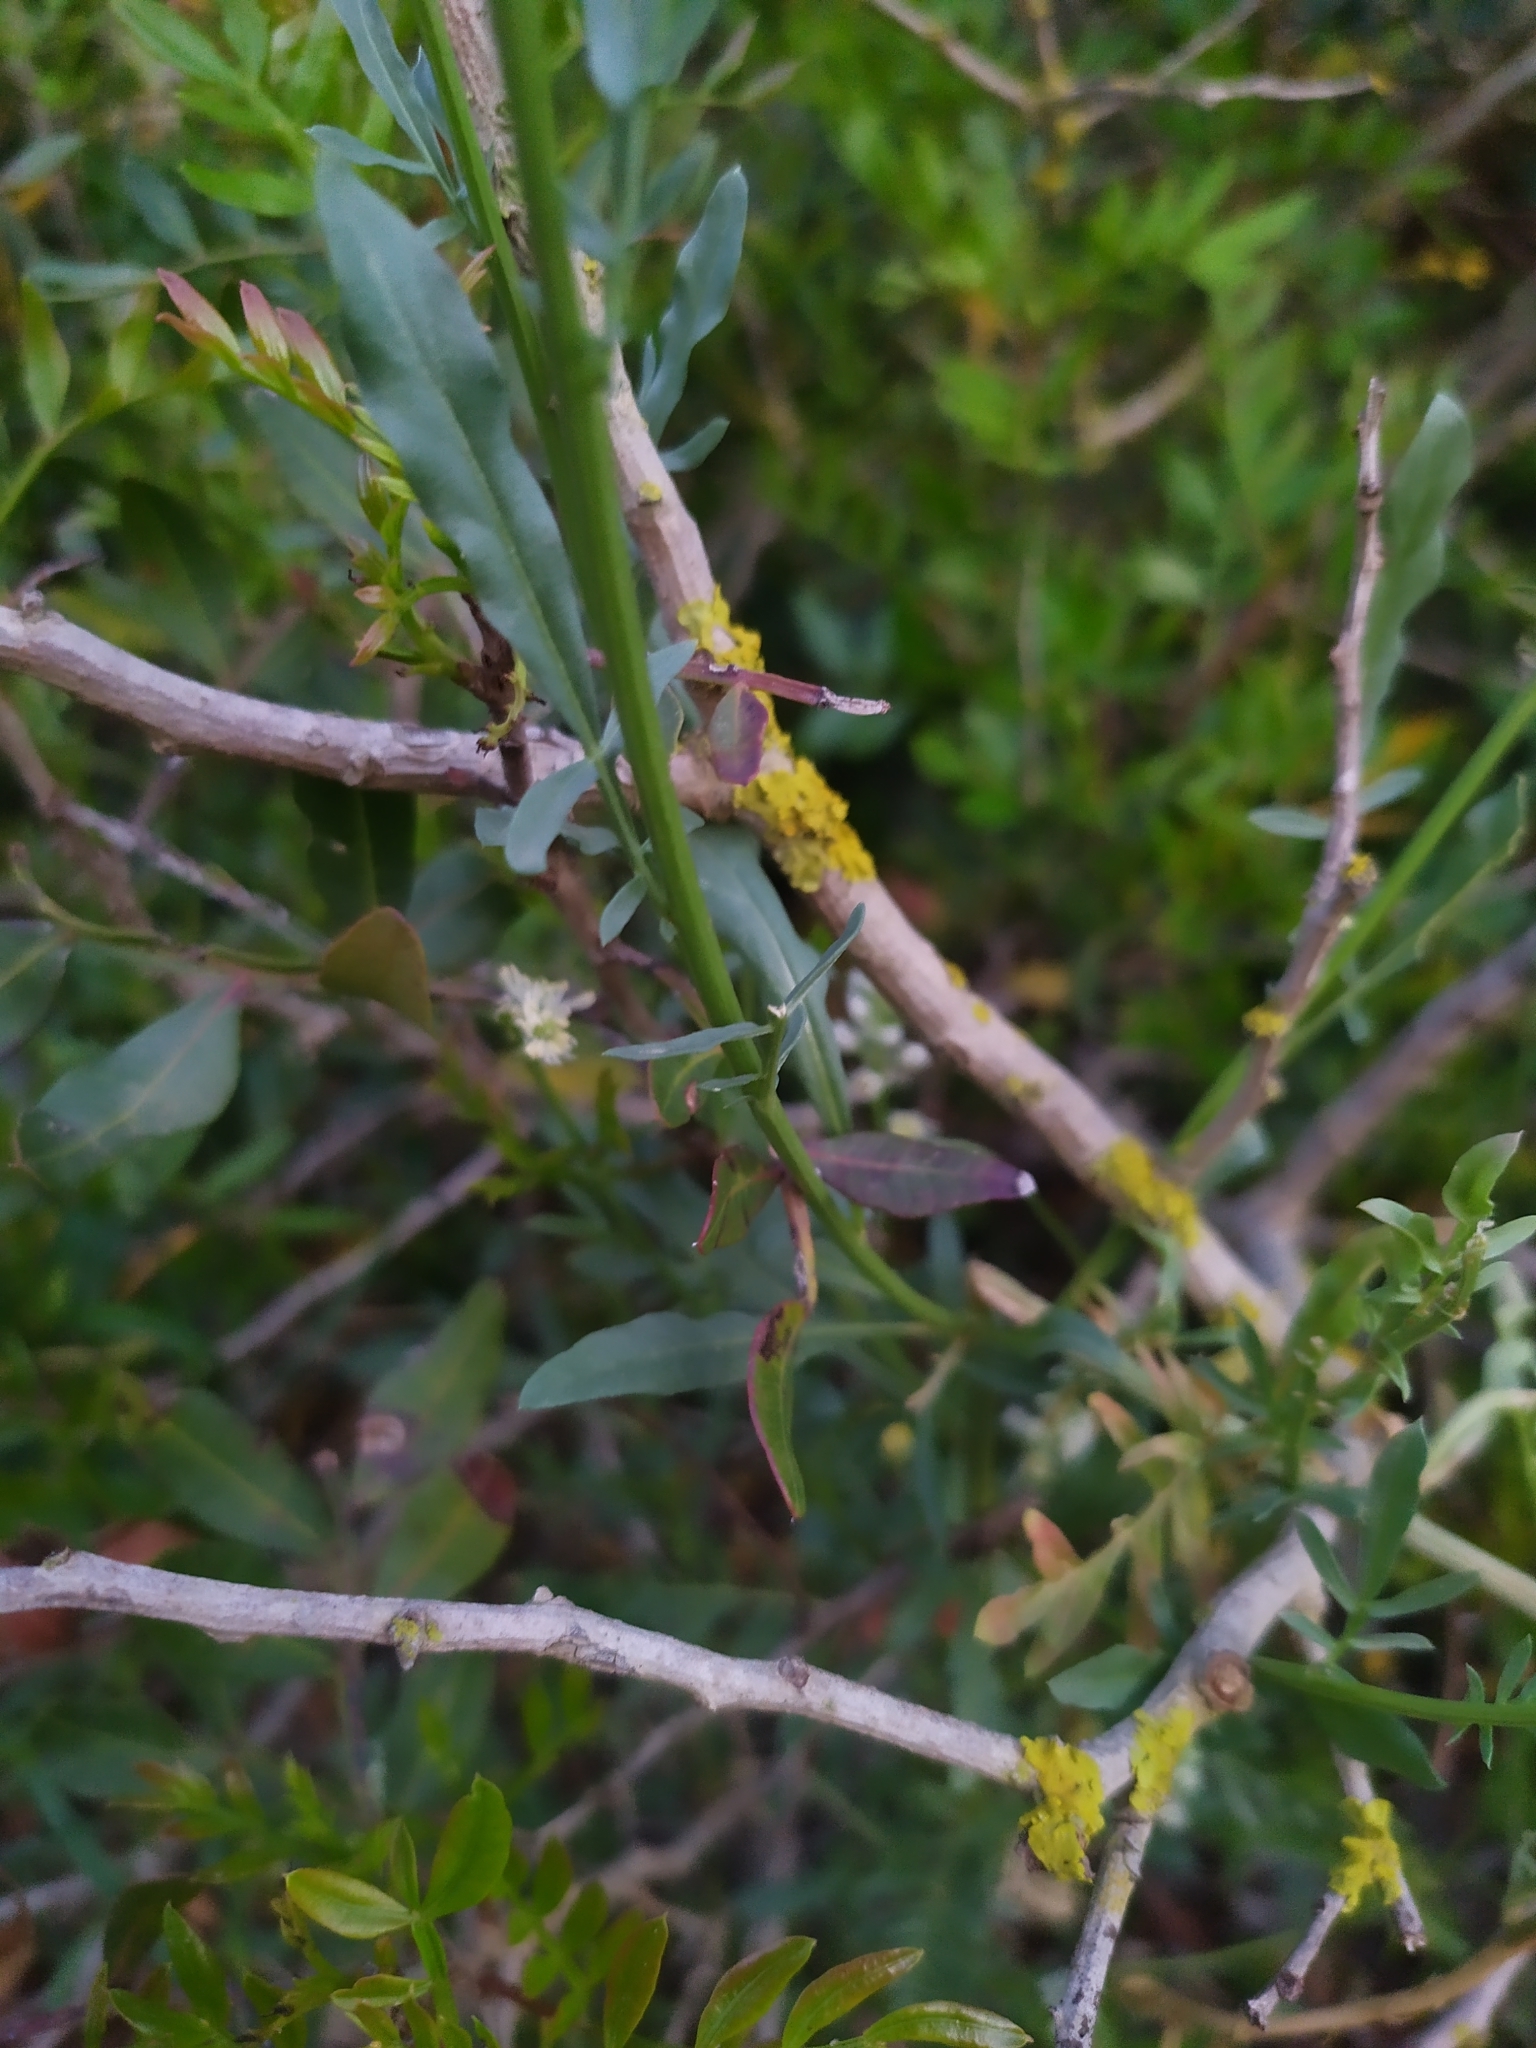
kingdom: Plantae
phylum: Tracheophyta
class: Magnoliopsida
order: Brassicales
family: Resedaceae
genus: Reseda
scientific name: Reseda alba
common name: White mignonette
